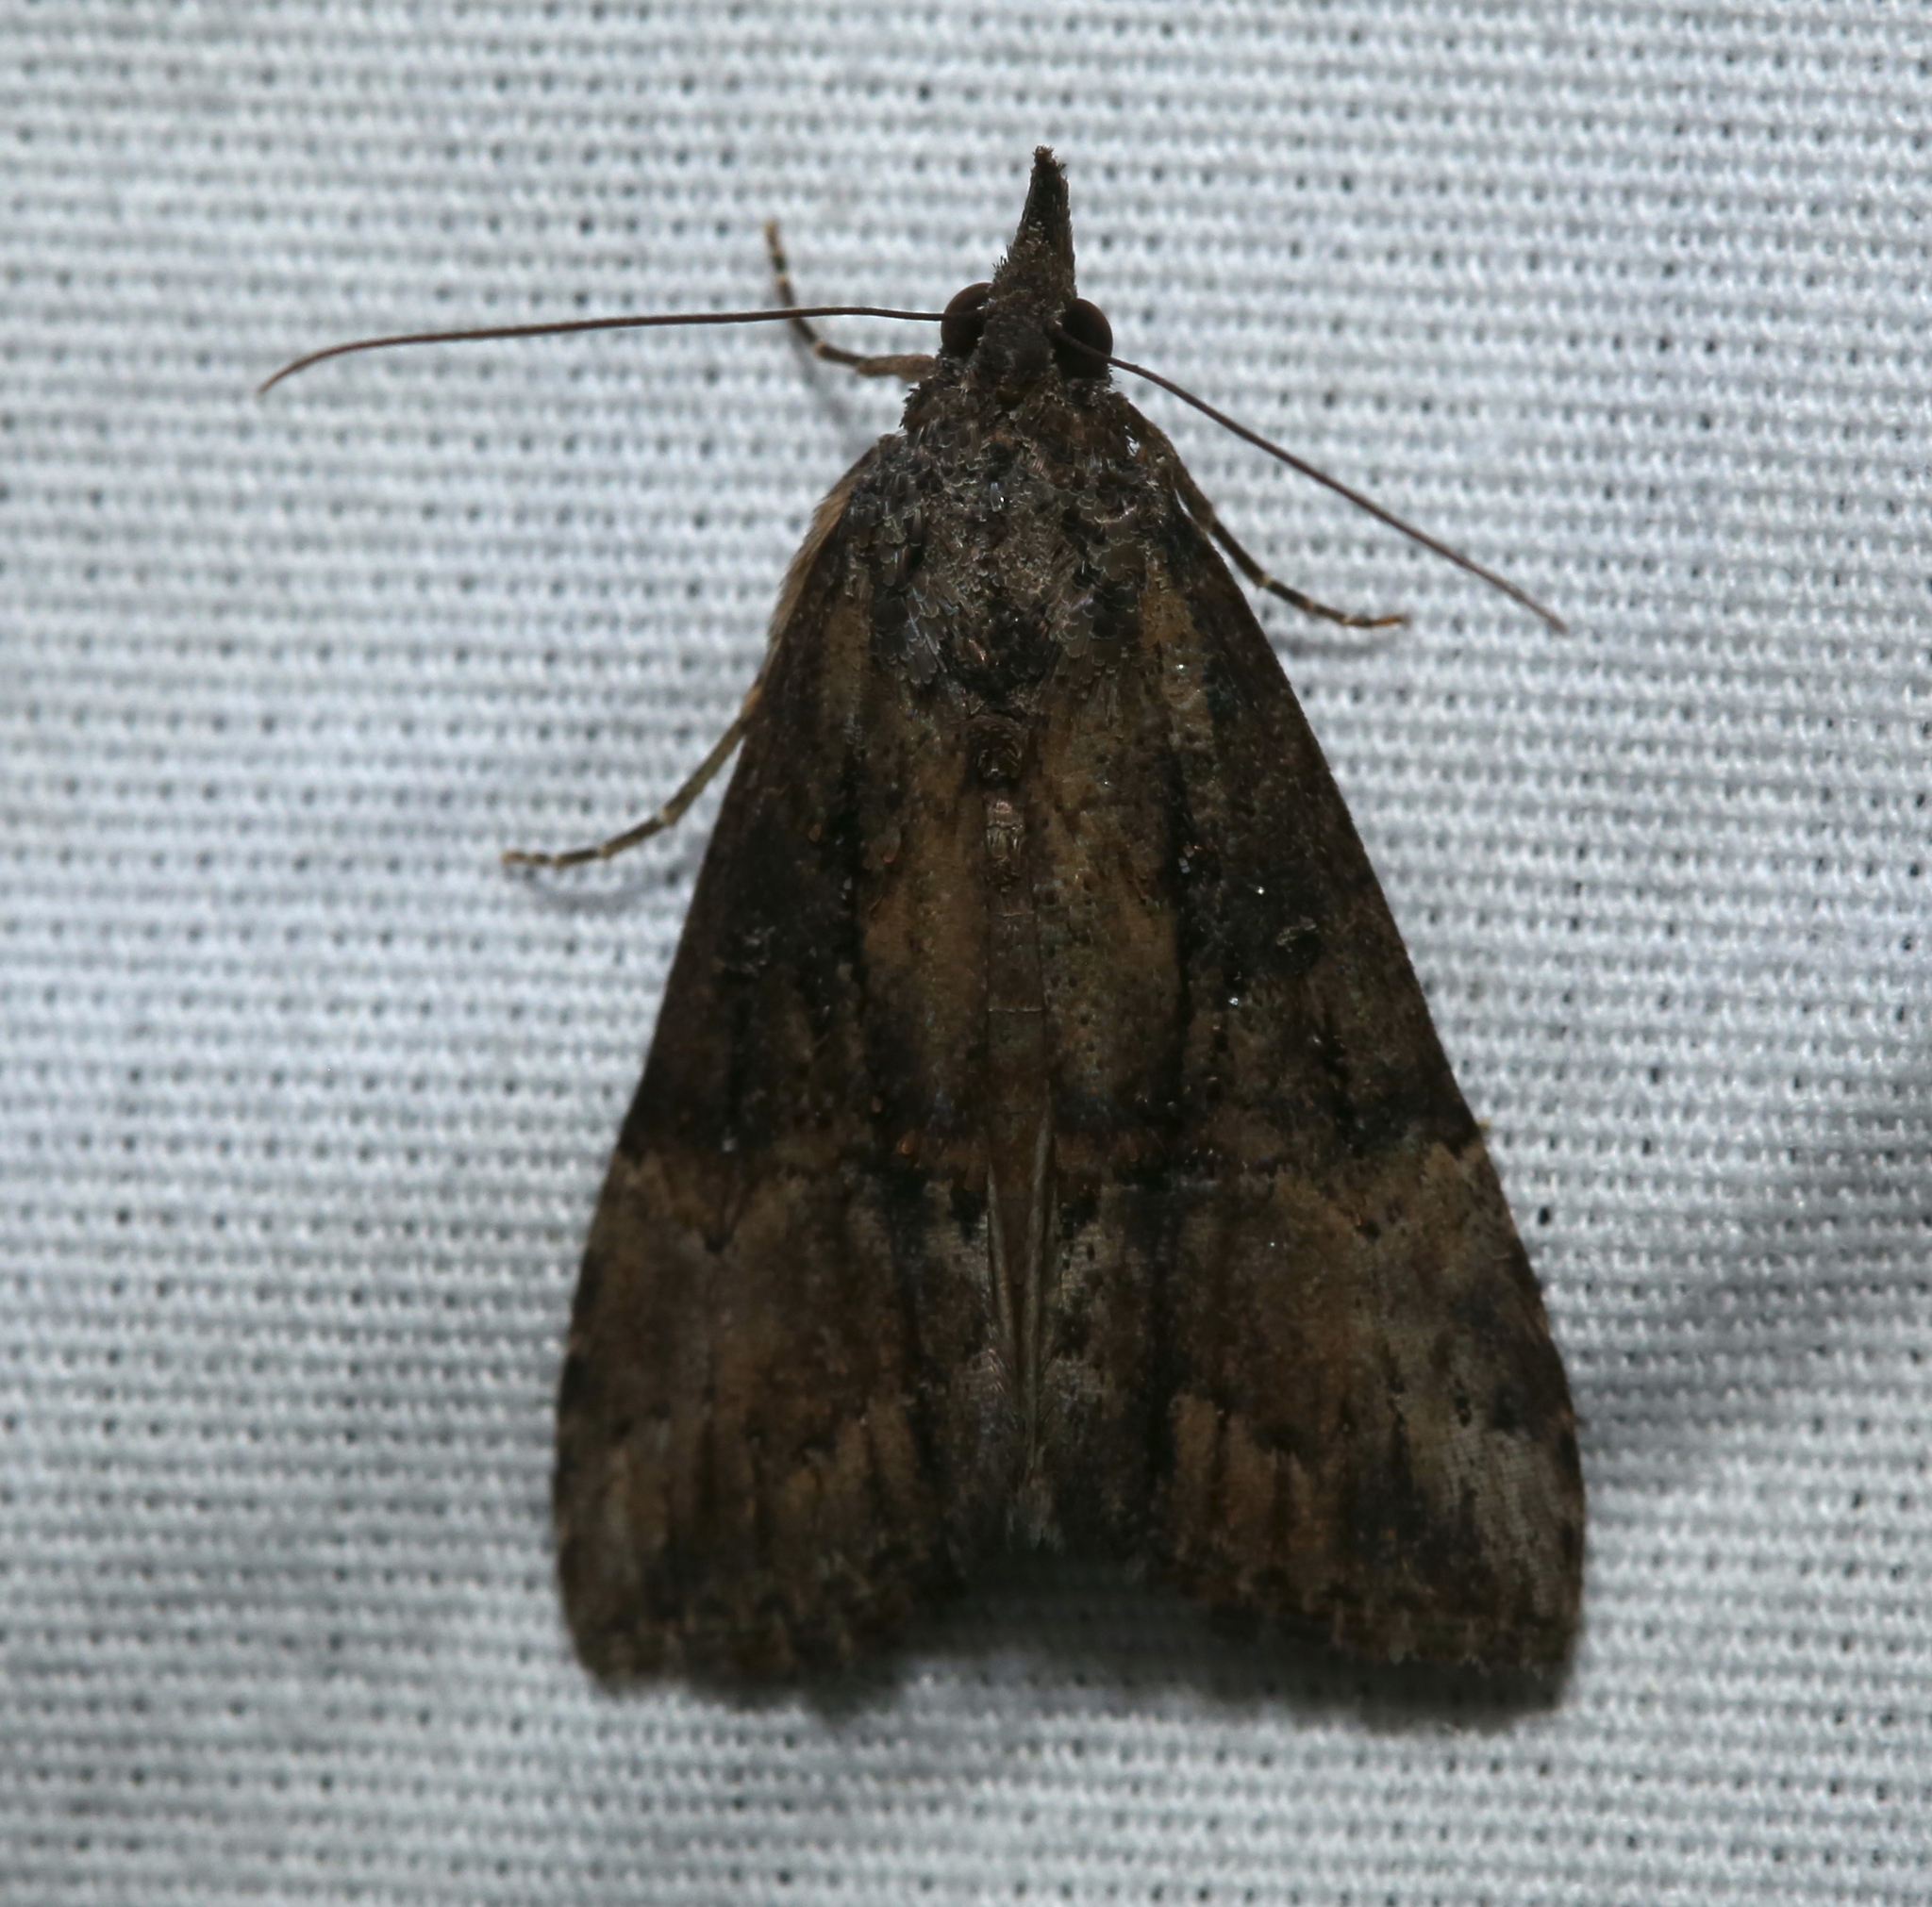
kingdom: Animalia
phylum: Arthropoda
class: Insecta
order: Lepidoptera
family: Erebidae
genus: Hypena
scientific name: Hypena scabra
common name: Green cloverworm
